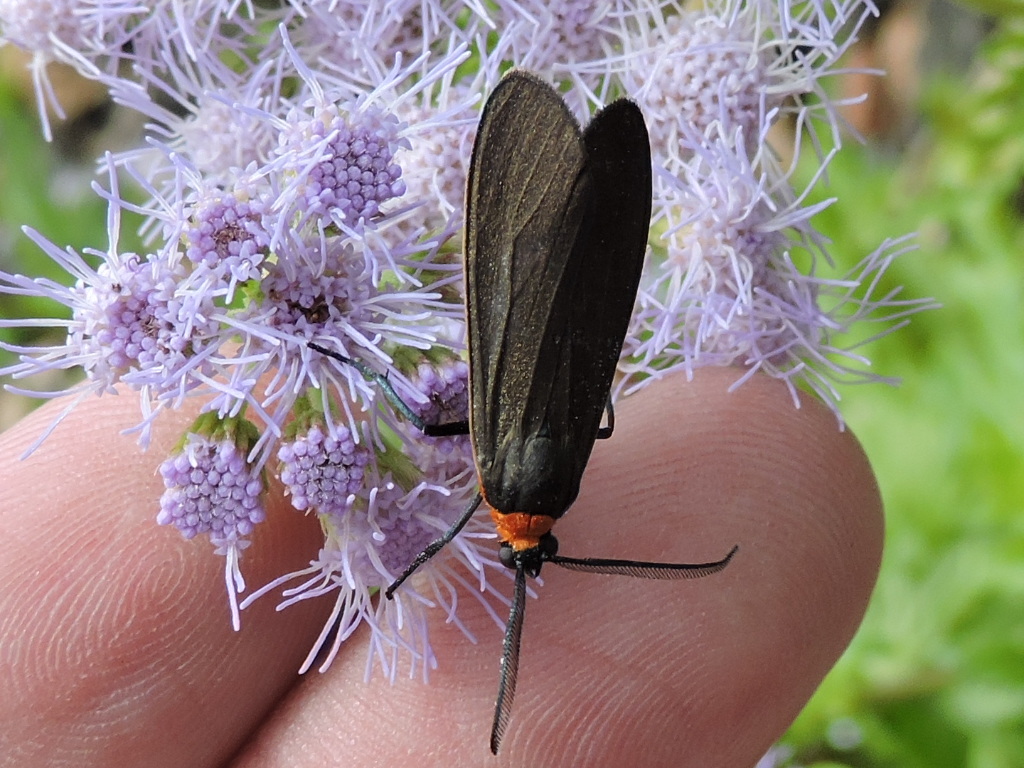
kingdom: Animalia
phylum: Arthropoda
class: Insecta
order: Lepidoptera
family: Erebidae
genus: Cisseps
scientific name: Cisseps fulvicollis
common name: Yellow-collared scape moth
